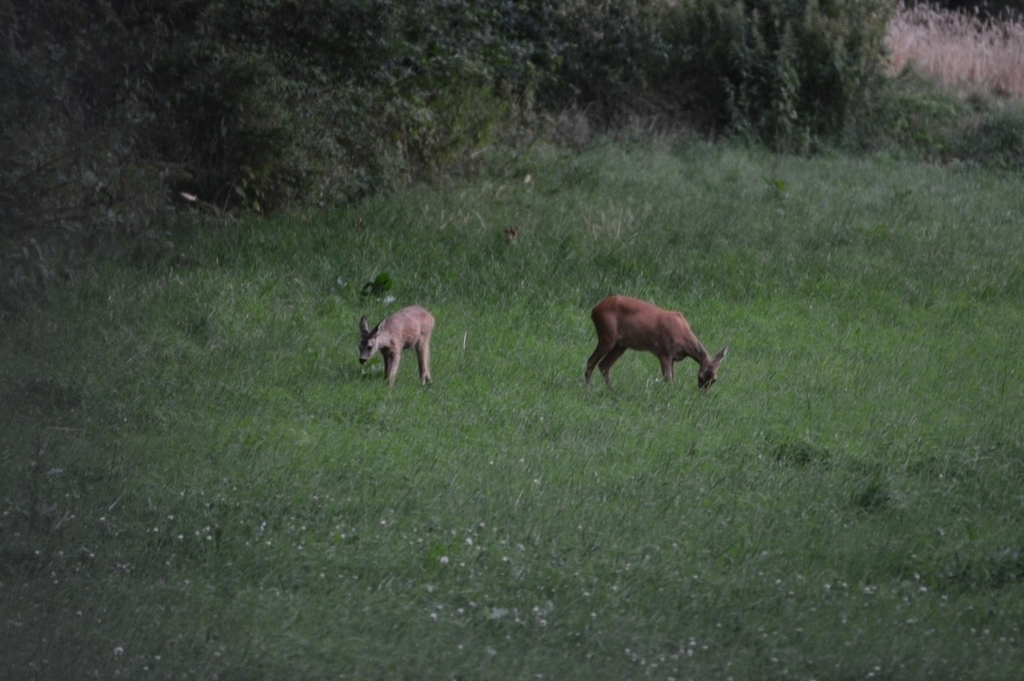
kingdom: Animalia
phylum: Chordata
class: Mammalia
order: Artiodactyla
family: Cervidae
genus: Capreolus
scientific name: Capreolus capreolus
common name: Western roe deer
